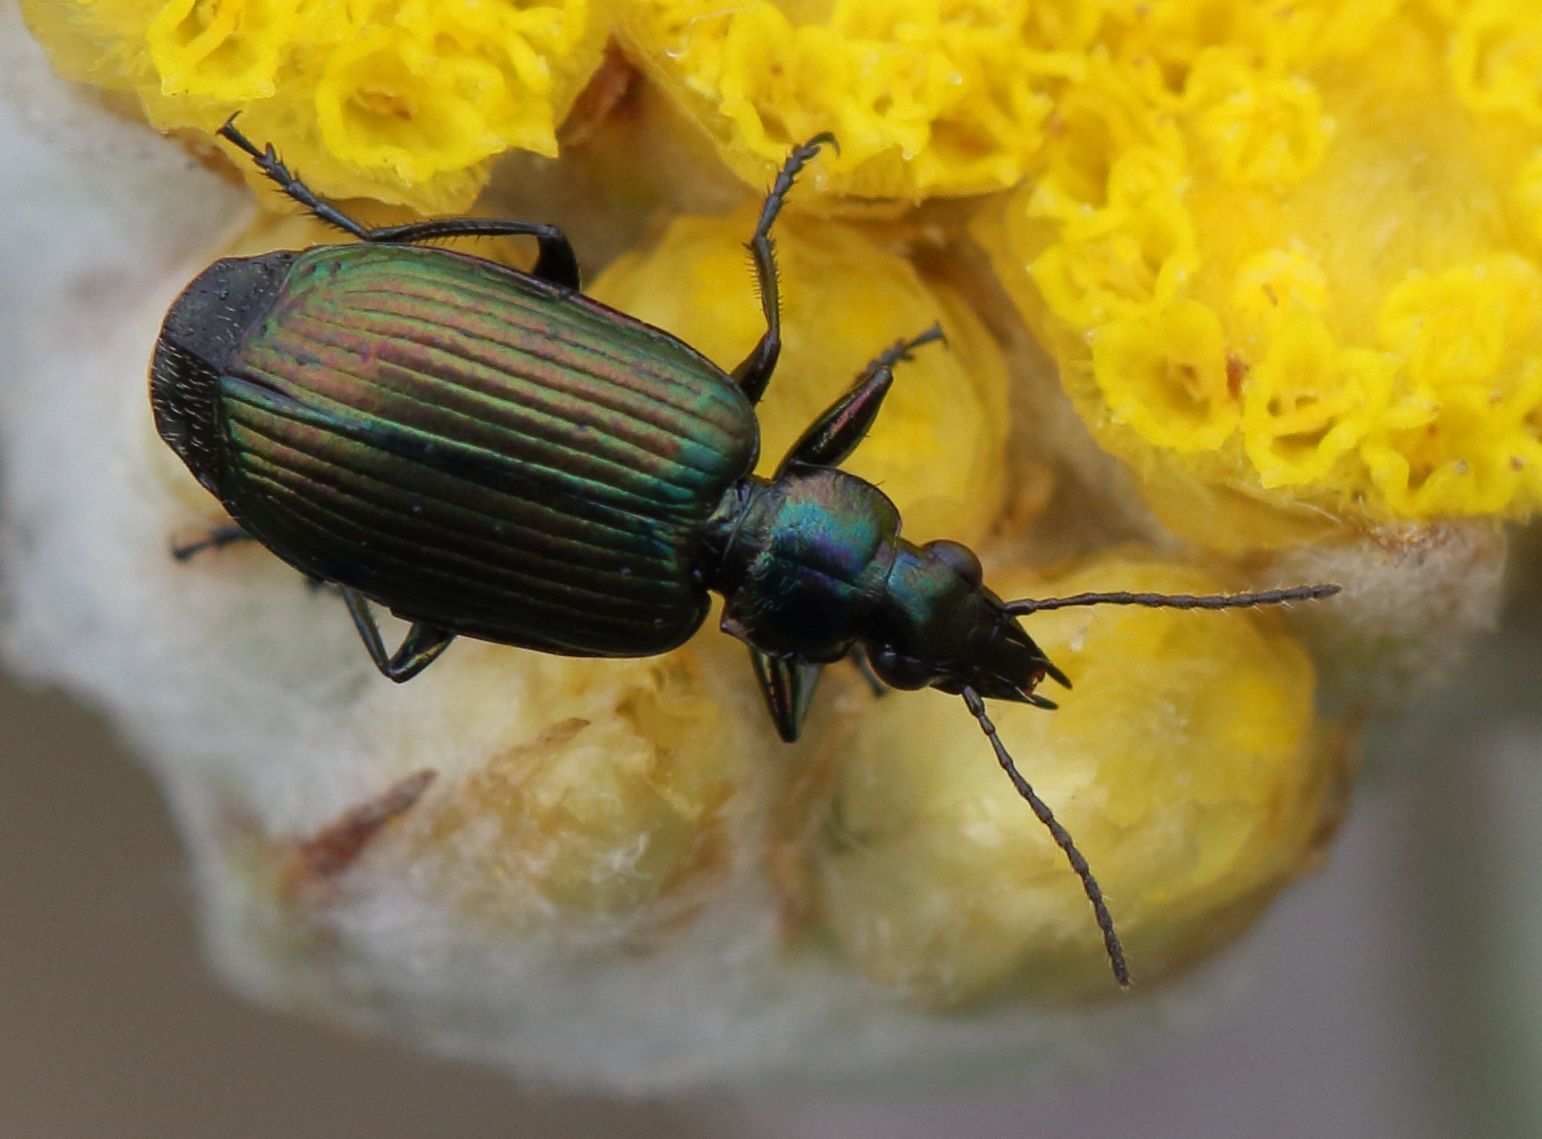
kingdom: Animalia
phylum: Arthropoda
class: Insecta
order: Coleoptera
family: Carabidae
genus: Lebia
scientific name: Lebia capensis
